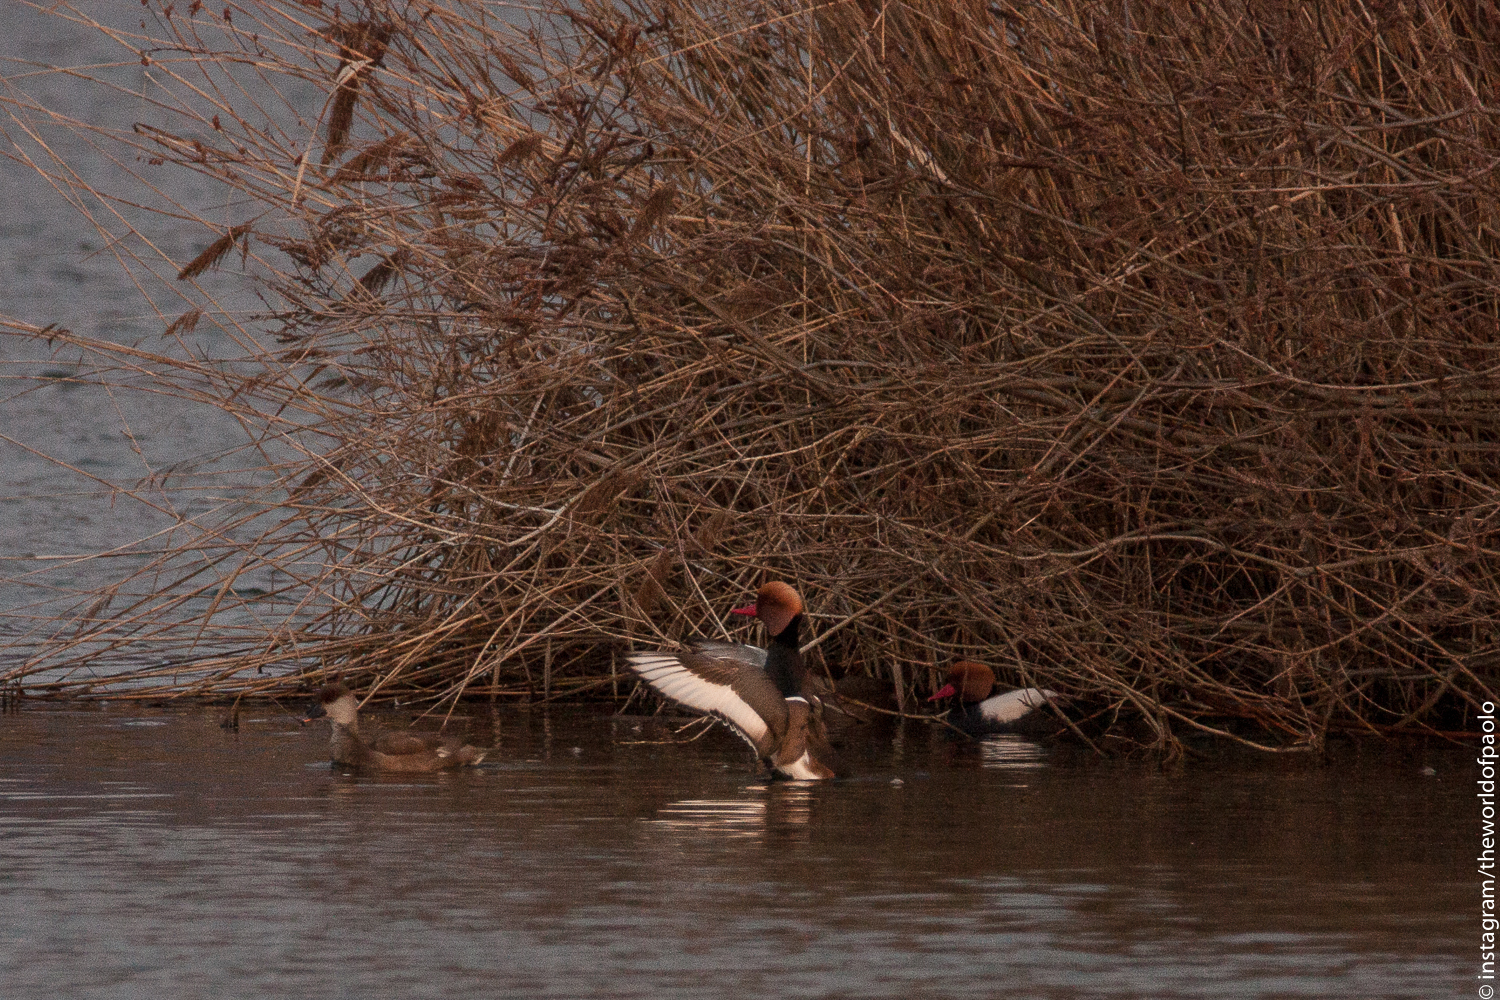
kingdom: Animalia
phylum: Chordata
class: Aves
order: Anseriformes
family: Anatidae
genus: Netta
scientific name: Netta rufina
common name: Red-crested pochard
